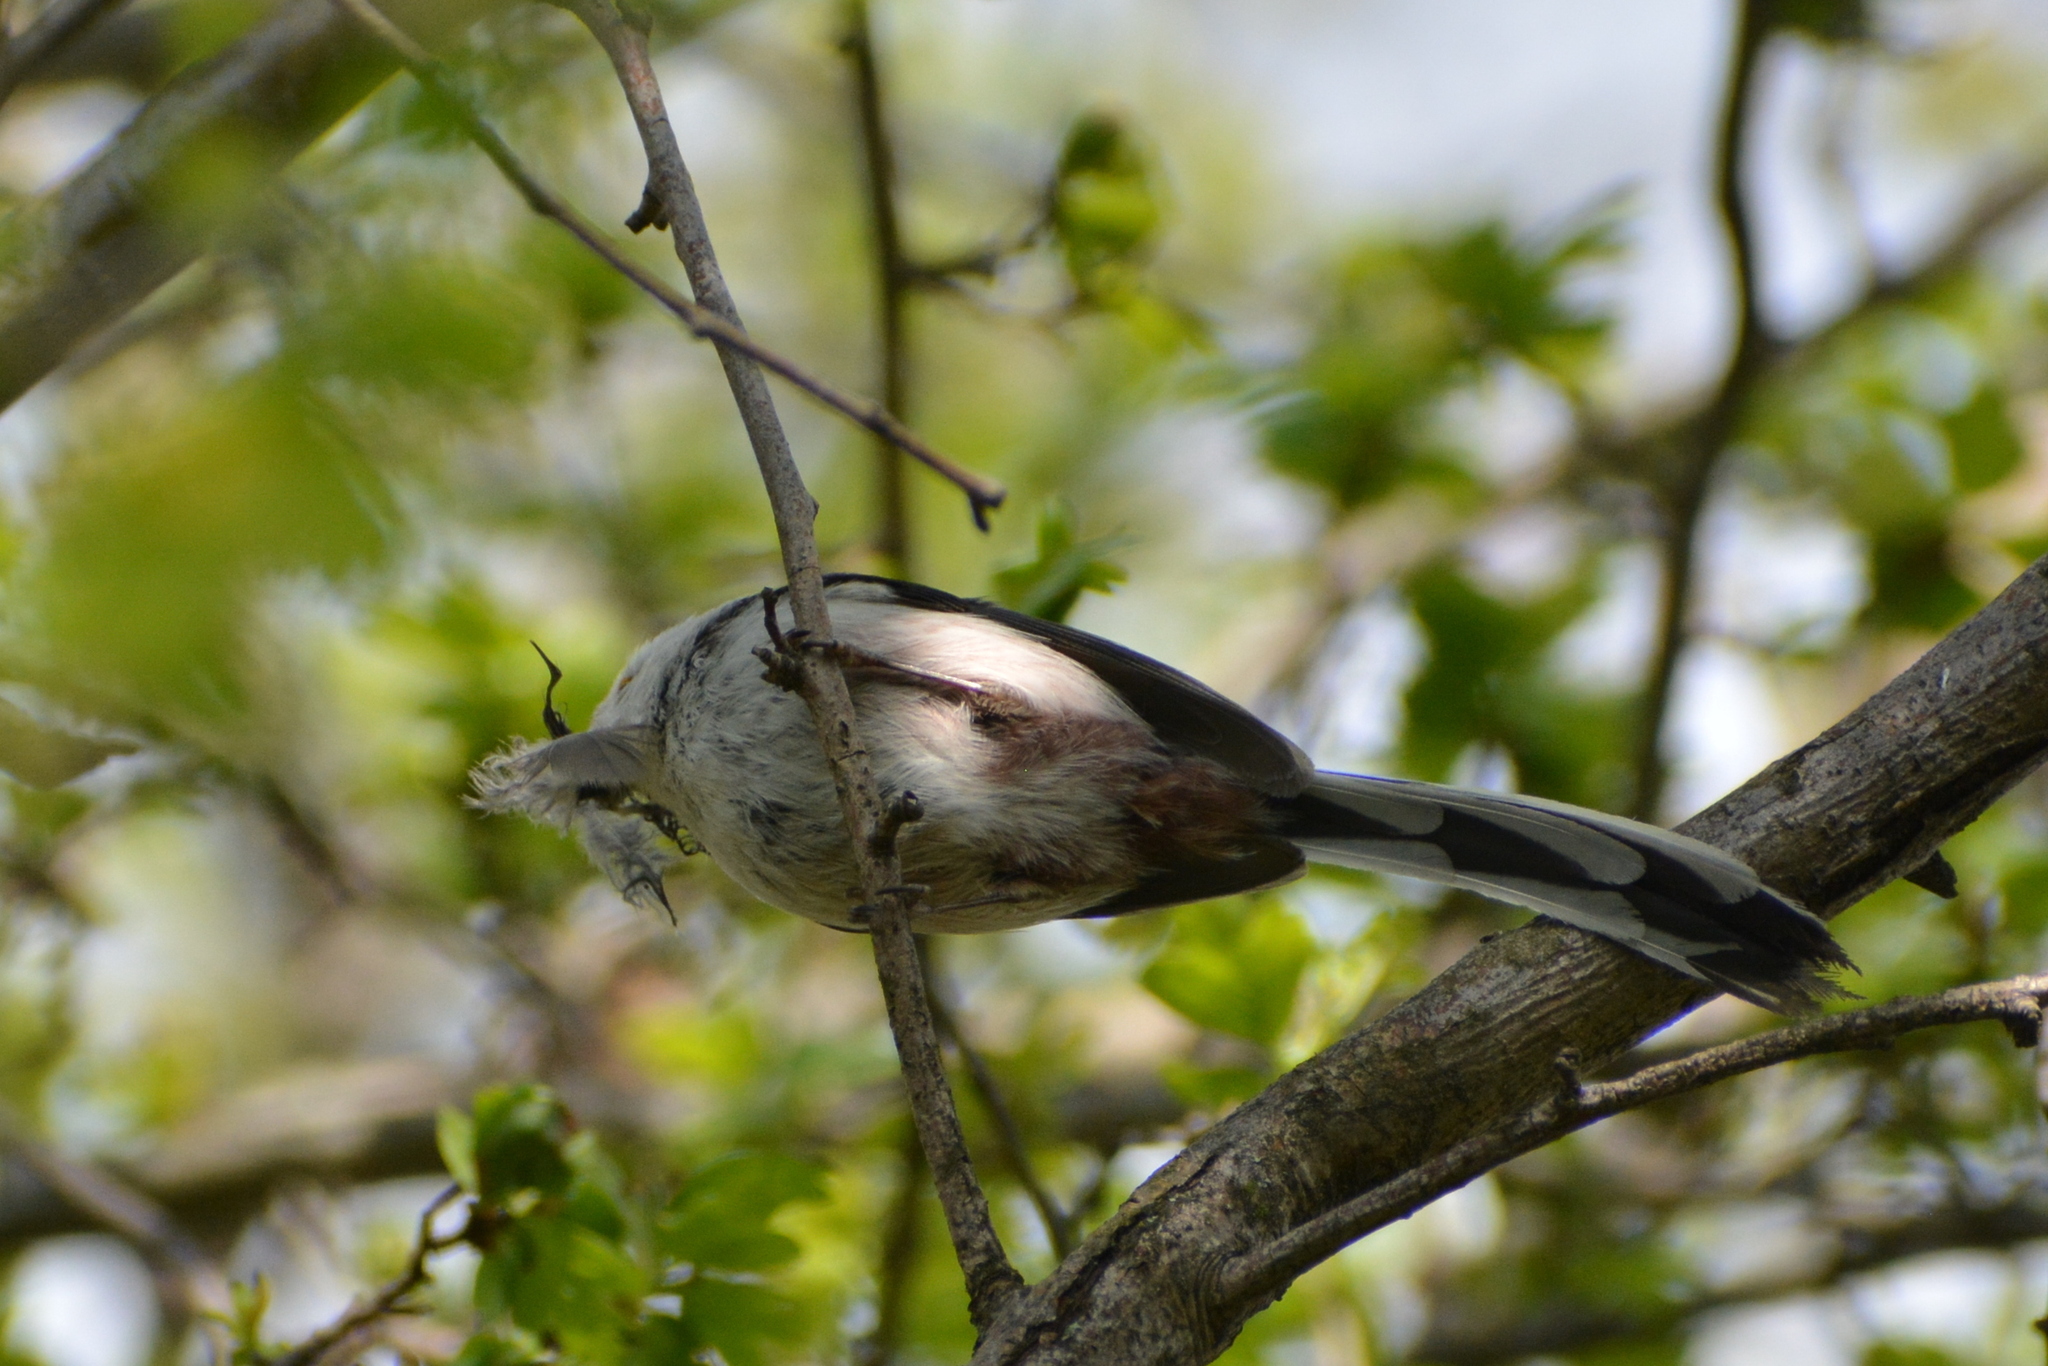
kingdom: Animalia
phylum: Chordata
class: Aves
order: Passeriformes
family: Aegithalidae
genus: Aegithalos
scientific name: Aegithalos caudatus
